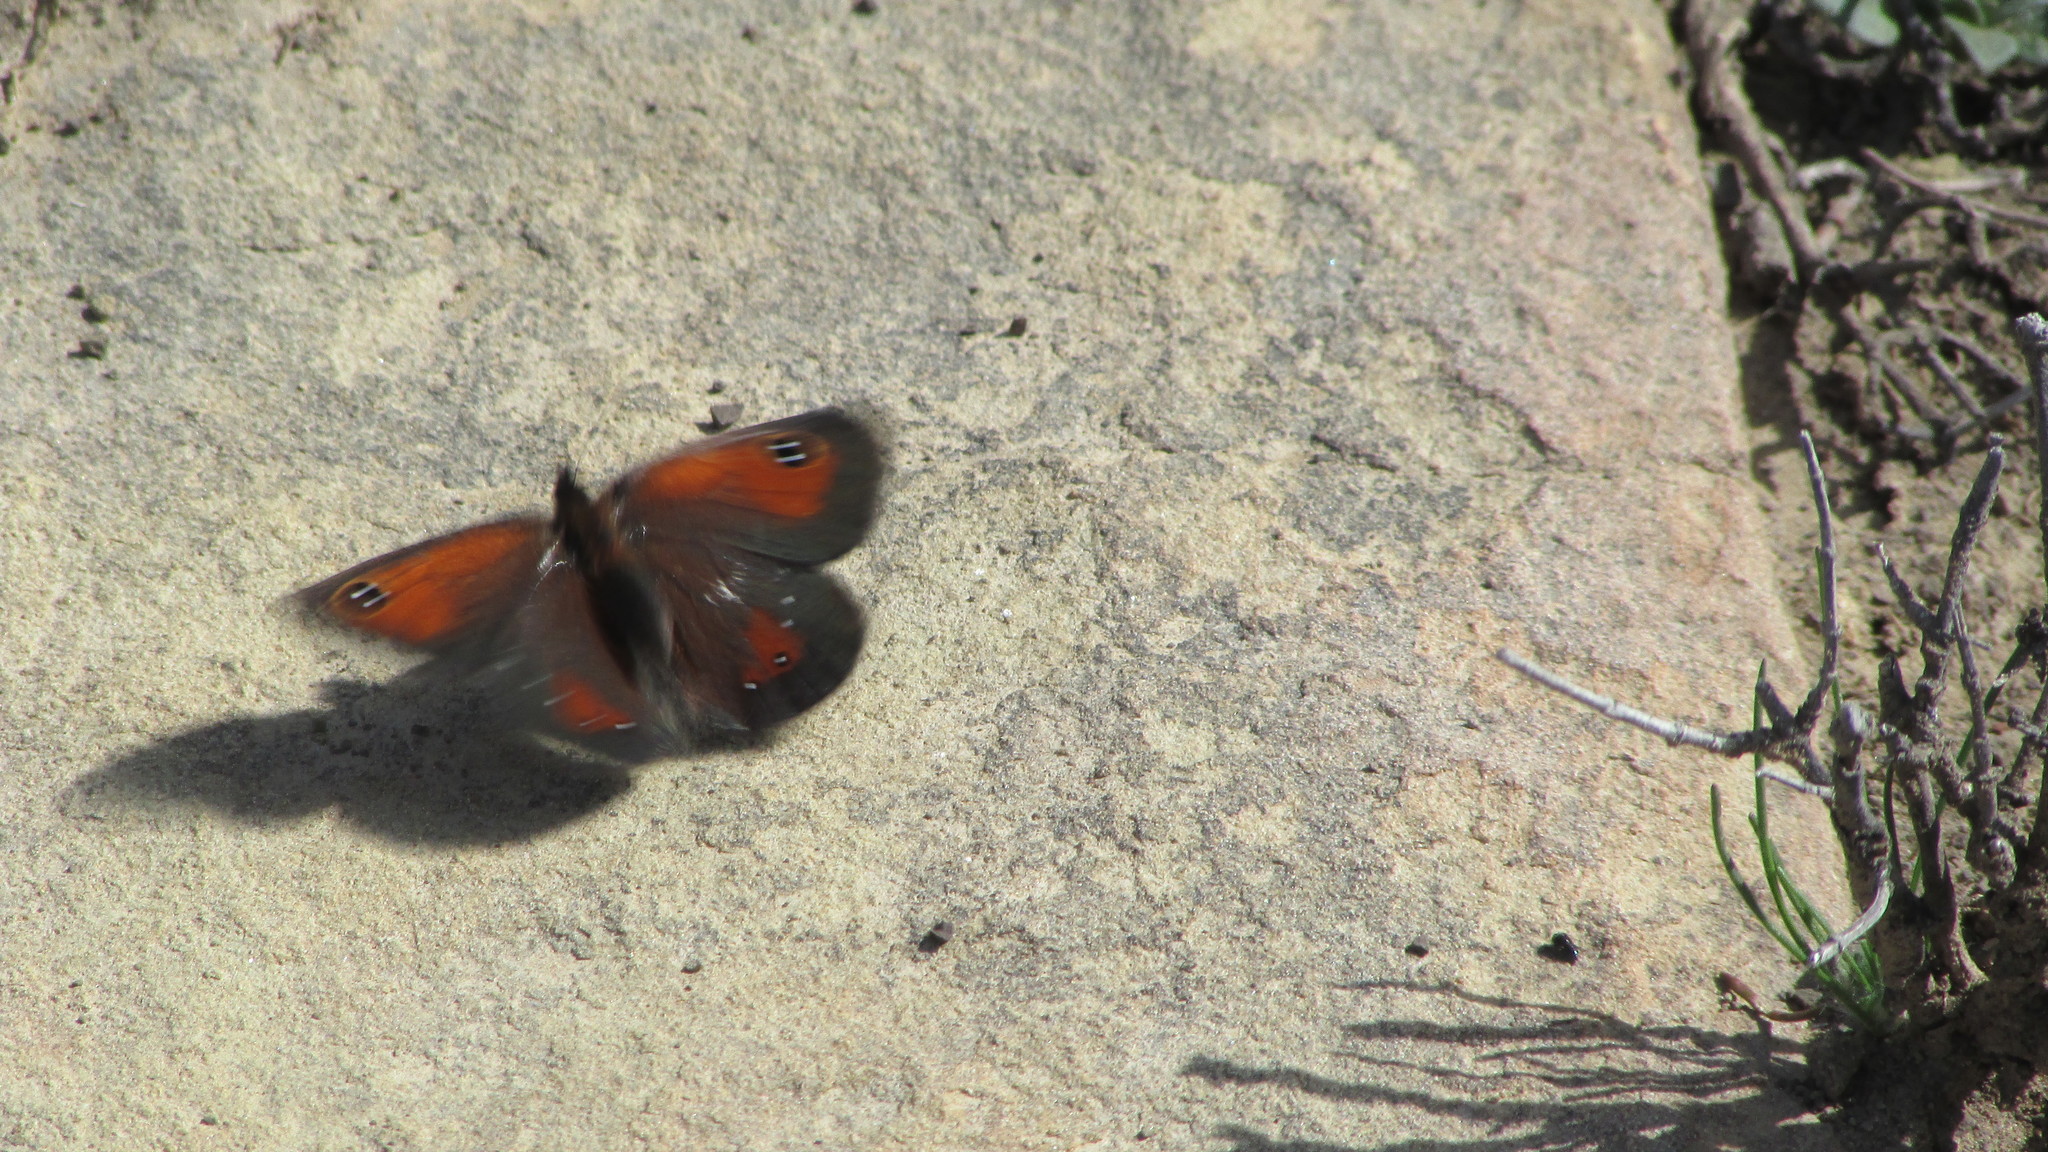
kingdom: Animalia
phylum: Arthropoda
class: Insecta
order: Lepidoptera
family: Nymphalidae
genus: Erebia
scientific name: Erebia
